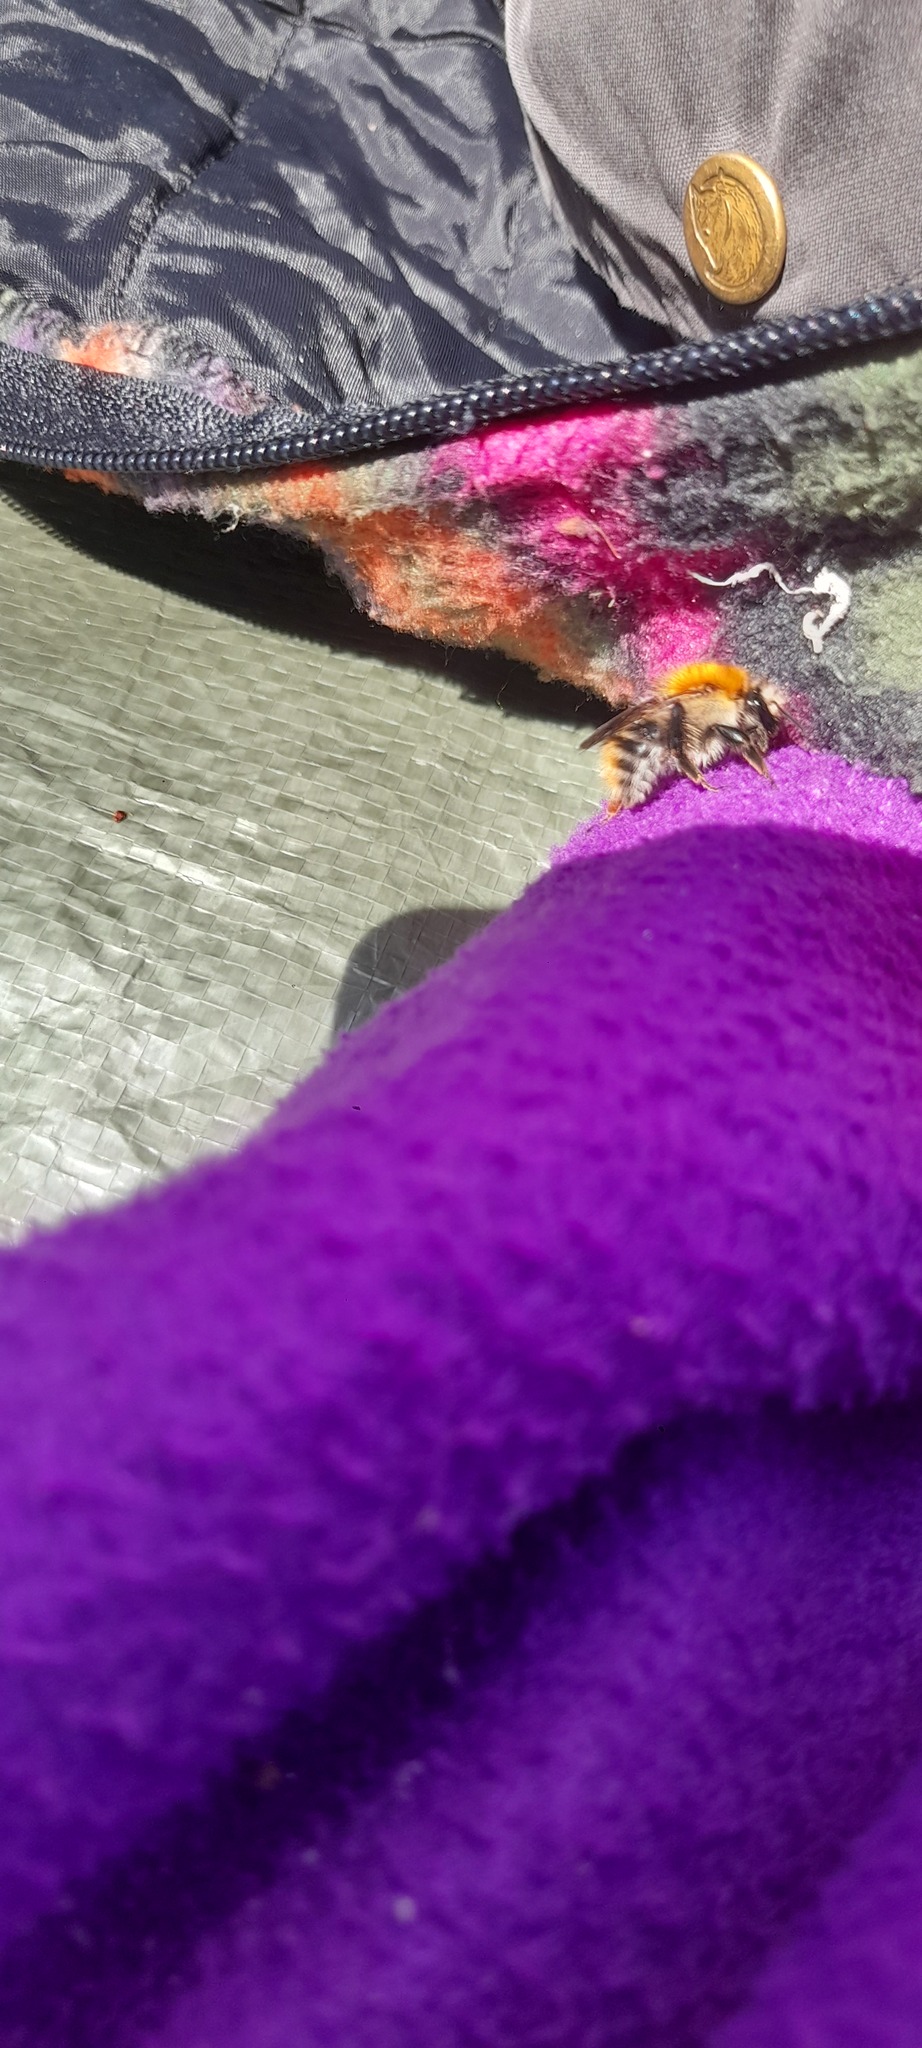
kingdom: Animalia
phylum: Arthropoda
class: Insecta
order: Hymenoptera
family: Apidae
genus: Bombus
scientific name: Bombus pascuorum
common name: Common carder bee
